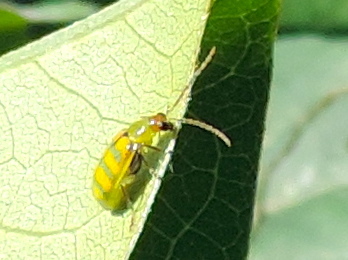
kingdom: Animalia
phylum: Arthropoda
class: Insecta
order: Coleoptera
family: Chrysomelidae
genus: Diabrotica
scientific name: Diabrotica balteata
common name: Leaf beetle
